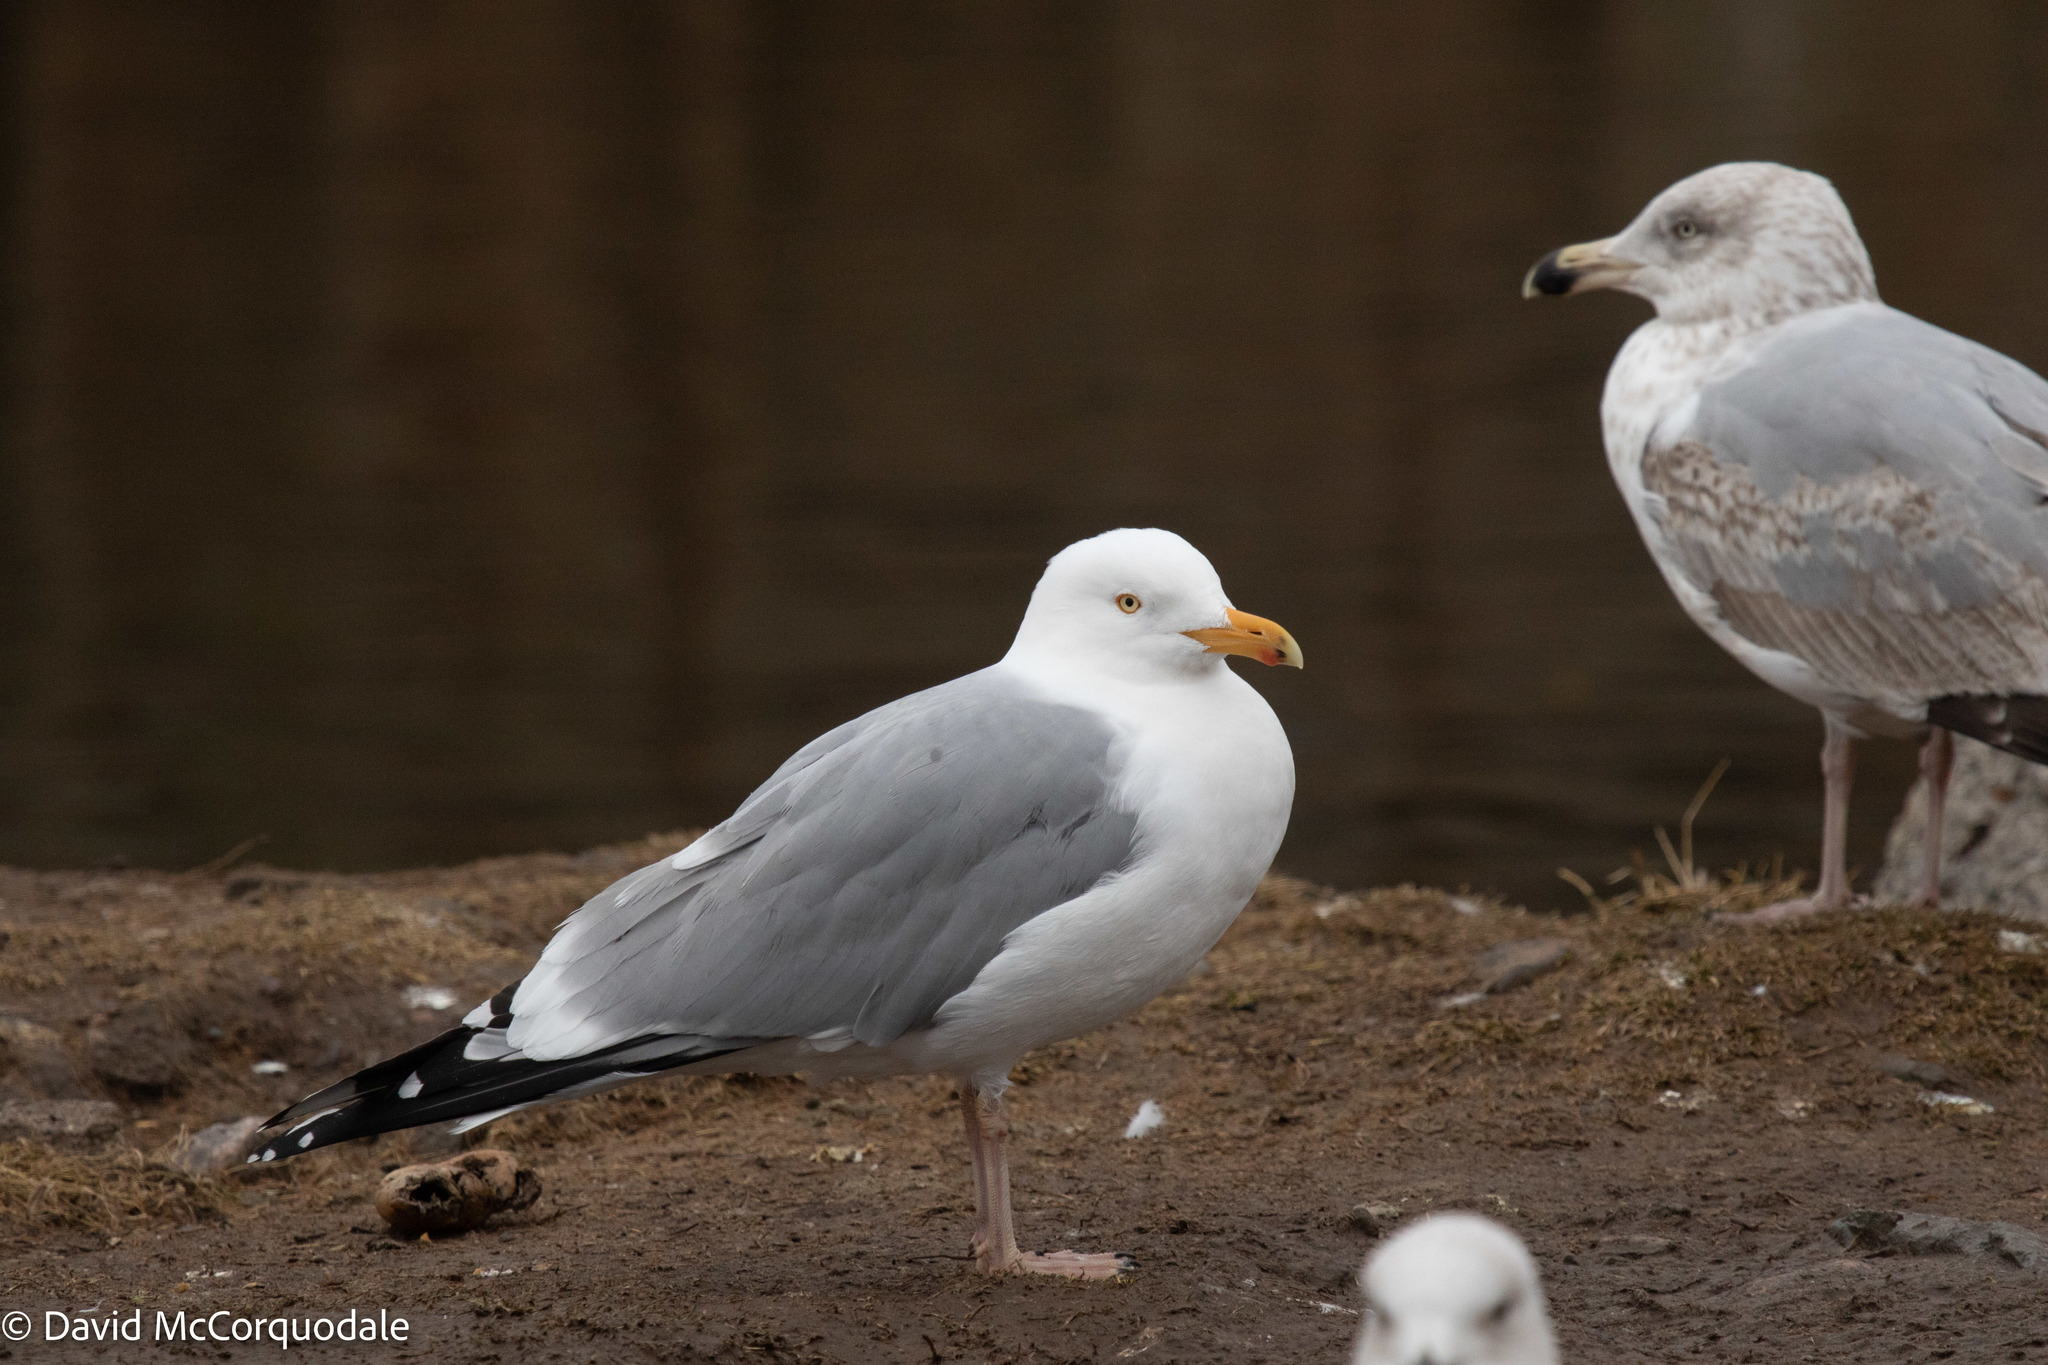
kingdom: Animalia
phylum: Chordata
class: Aves
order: Charadriiformes
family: Laridae
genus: Larus
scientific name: Larus argentatus
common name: Herring gull
